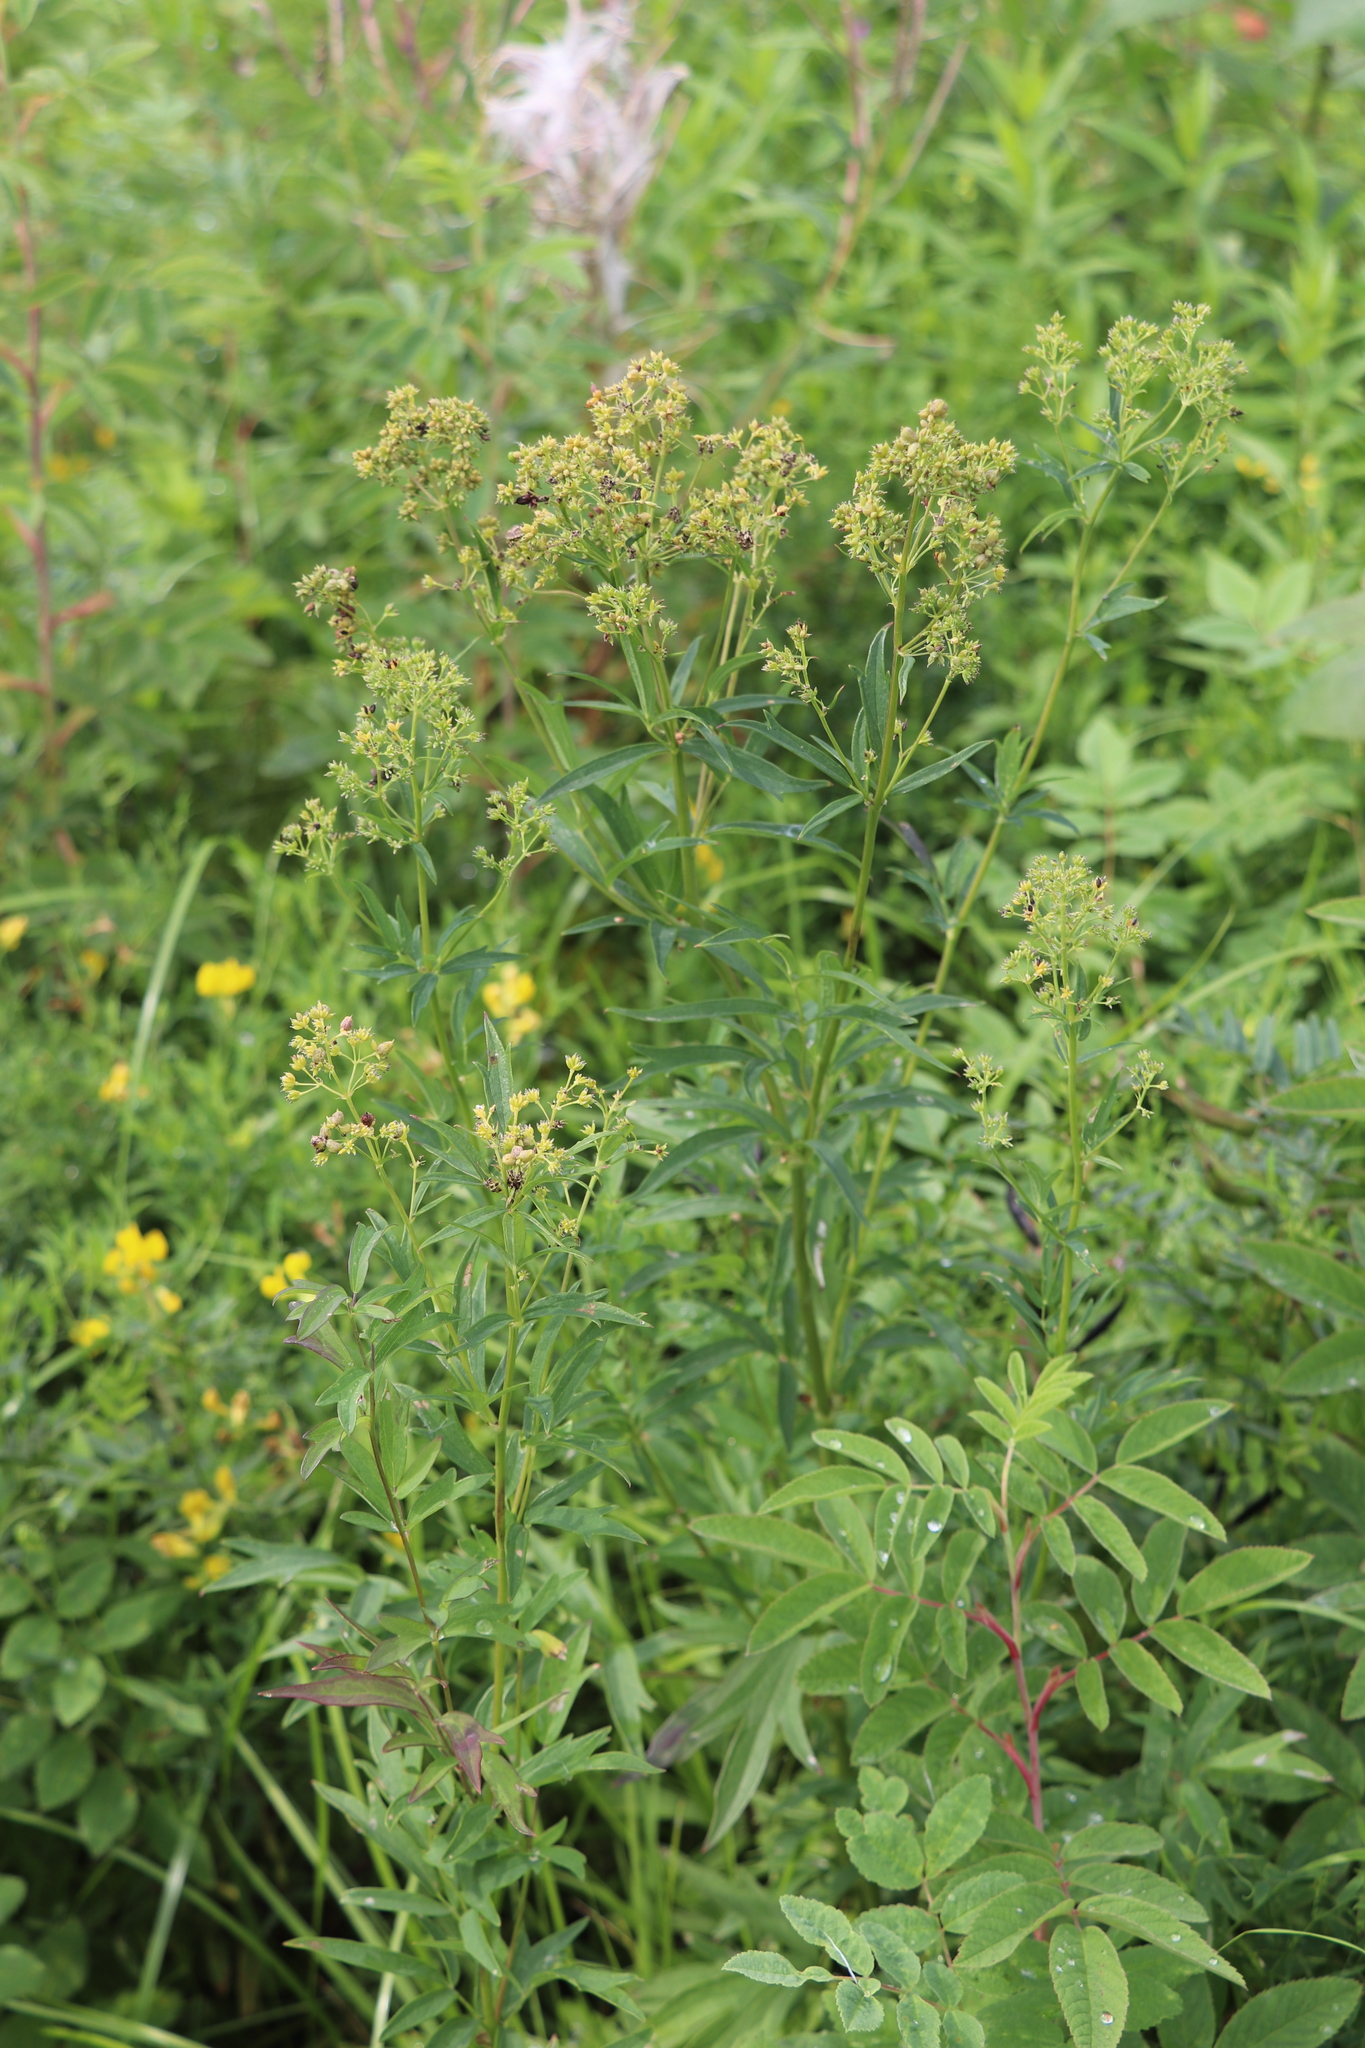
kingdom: Plantae
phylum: Tracheophyta
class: Magnoliopsida
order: Ranunculales
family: Ranunculaceae
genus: Thalictrum
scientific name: Thalictrum simplex
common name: Small meadow-rue
